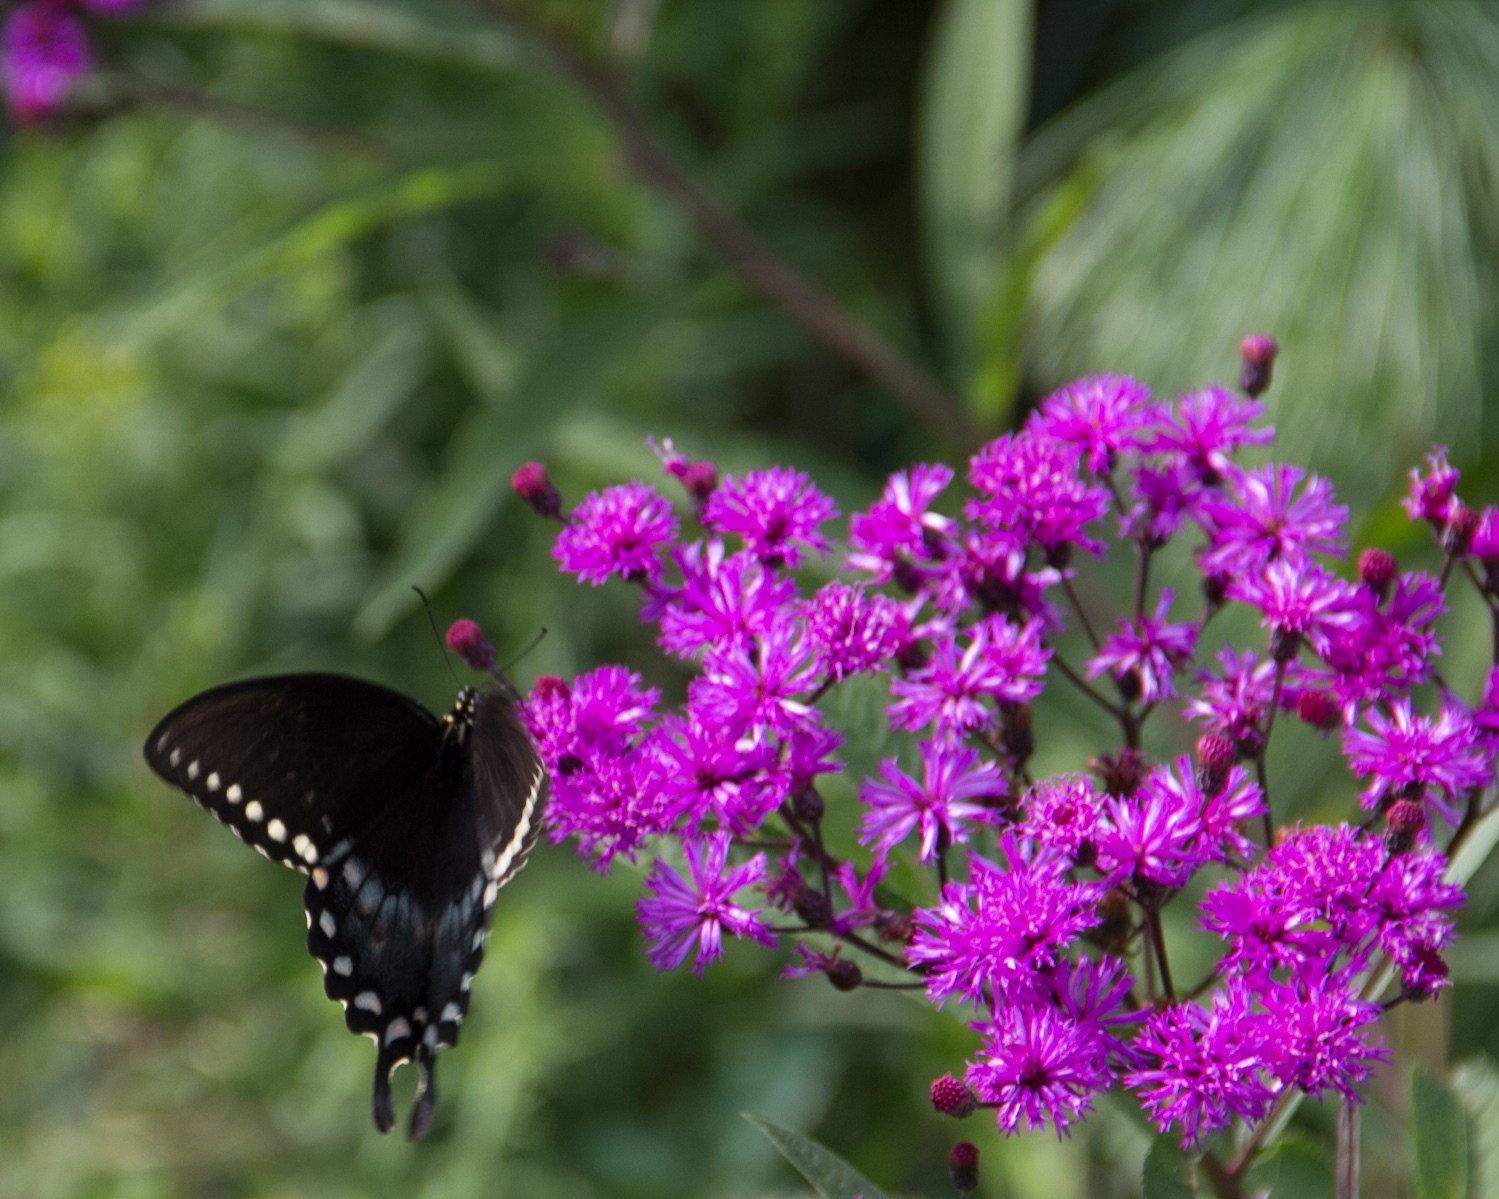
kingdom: Animalia
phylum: Arthropoda
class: Insecta
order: Lepidoptera
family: Papilionidae
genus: Papilio
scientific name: Papilio troilus
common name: Spicebush swallowtail
